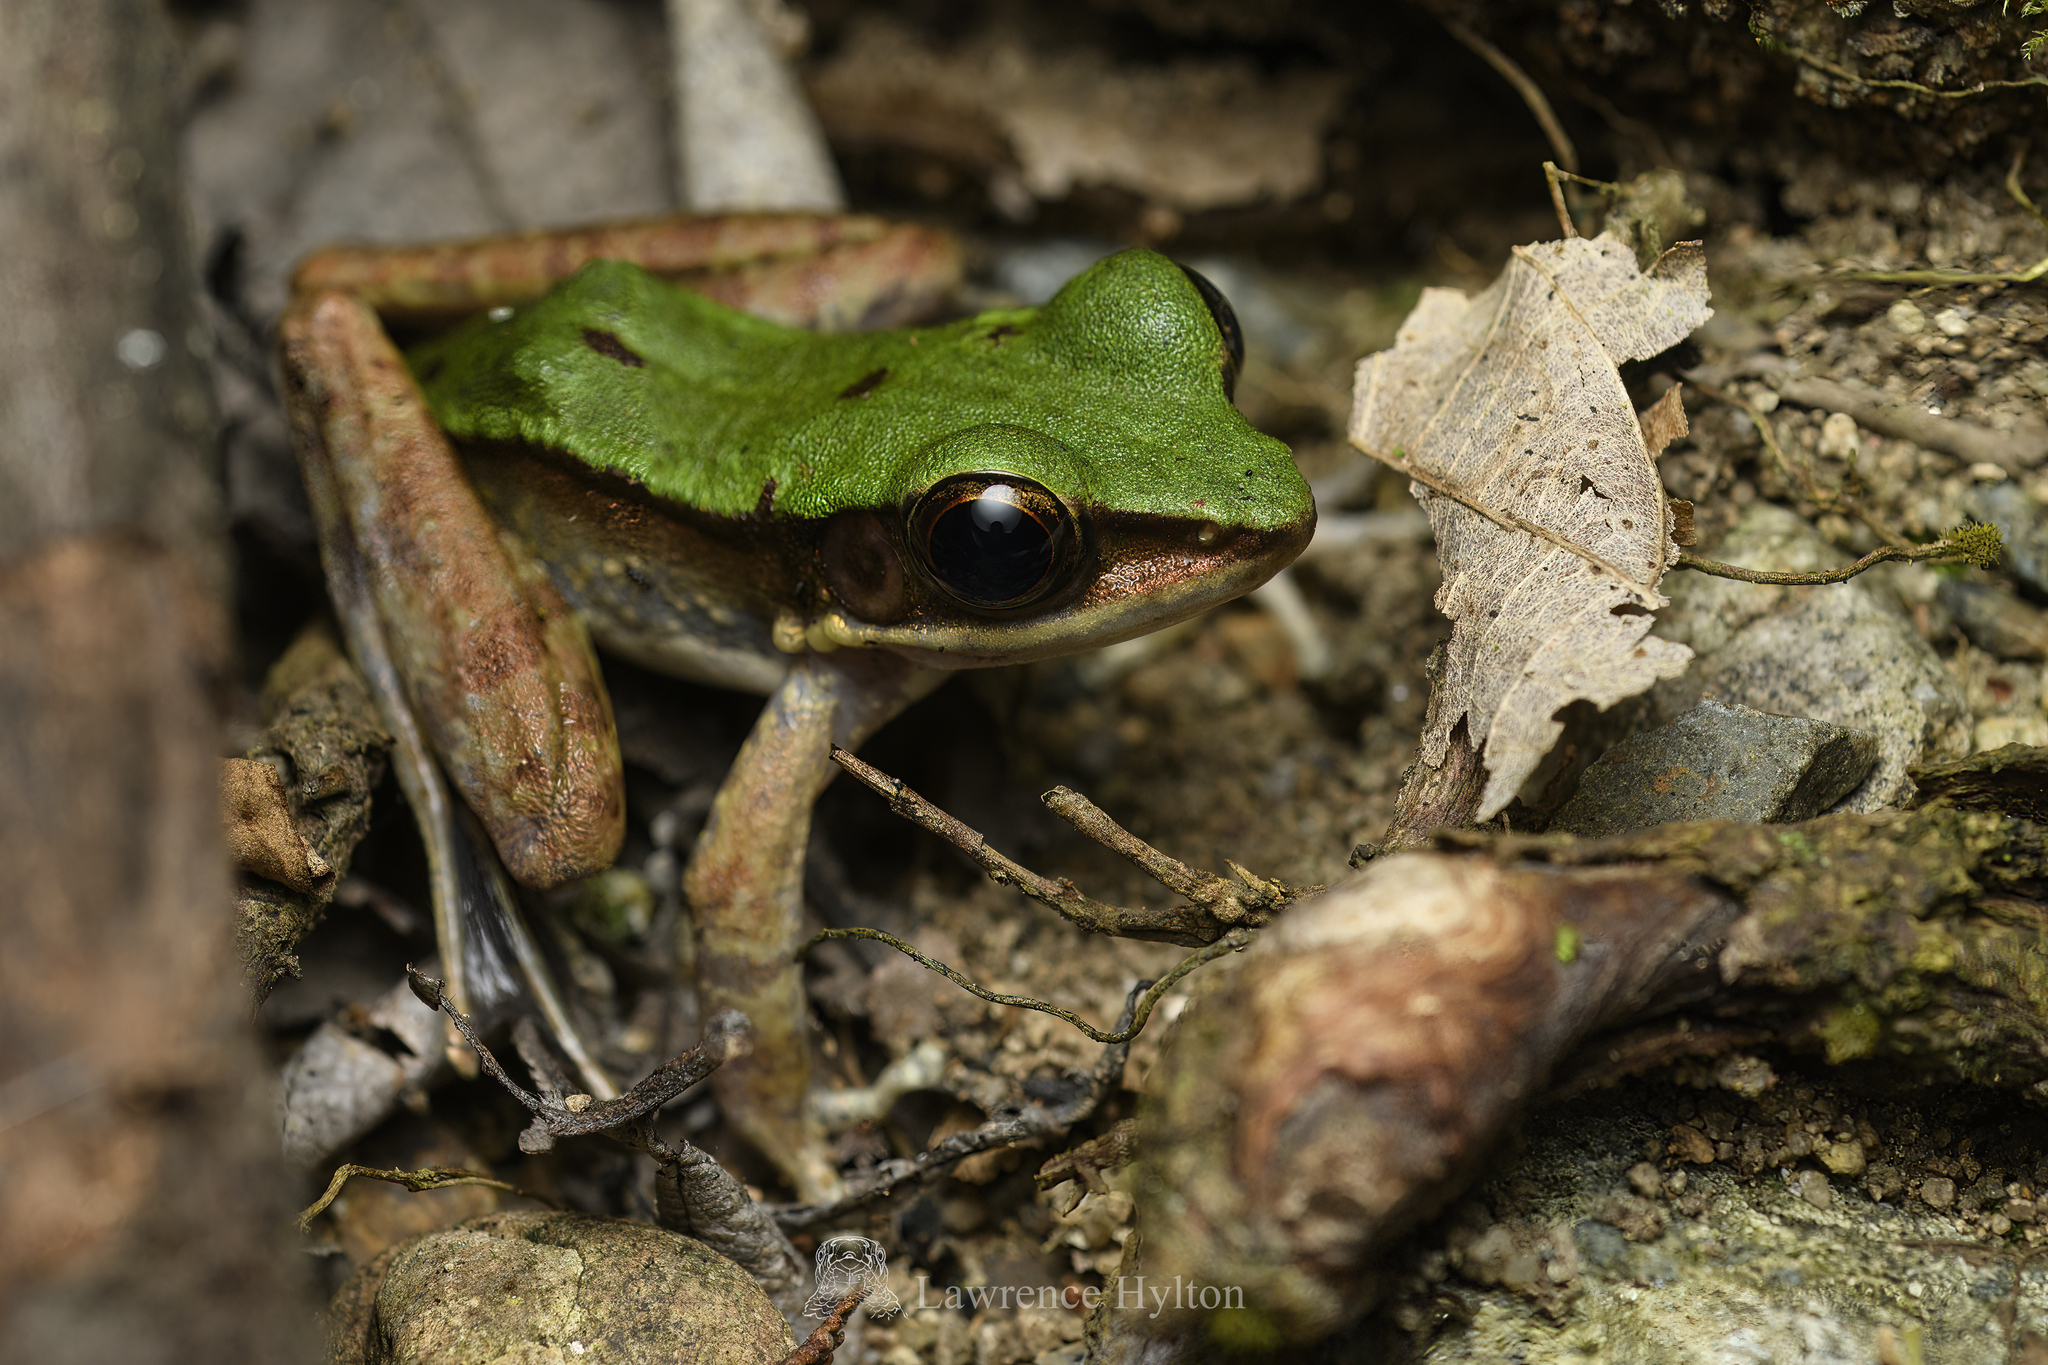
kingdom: Animalia
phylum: Chordata
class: Amphibia
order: Anura
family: Ranidae
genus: Odorrana
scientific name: Odorrana graminea
